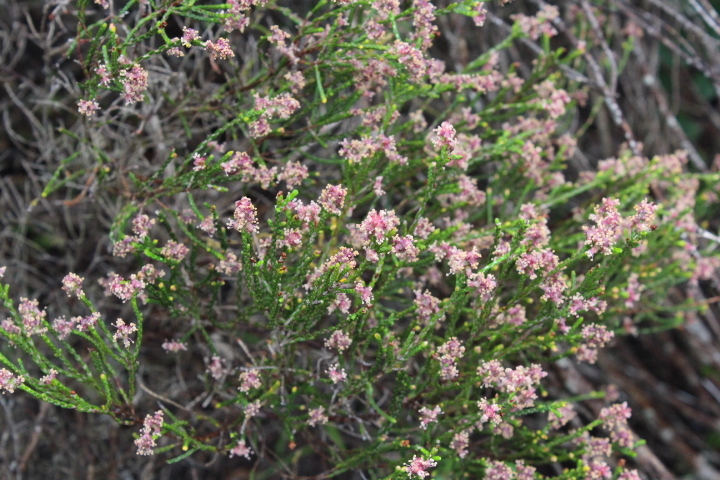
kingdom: Plantae
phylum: Tracheophyta
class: Magnoliopsida
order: Malvales
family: Thymelaeaceae
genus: Passerina
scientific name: Passerina paleacea
